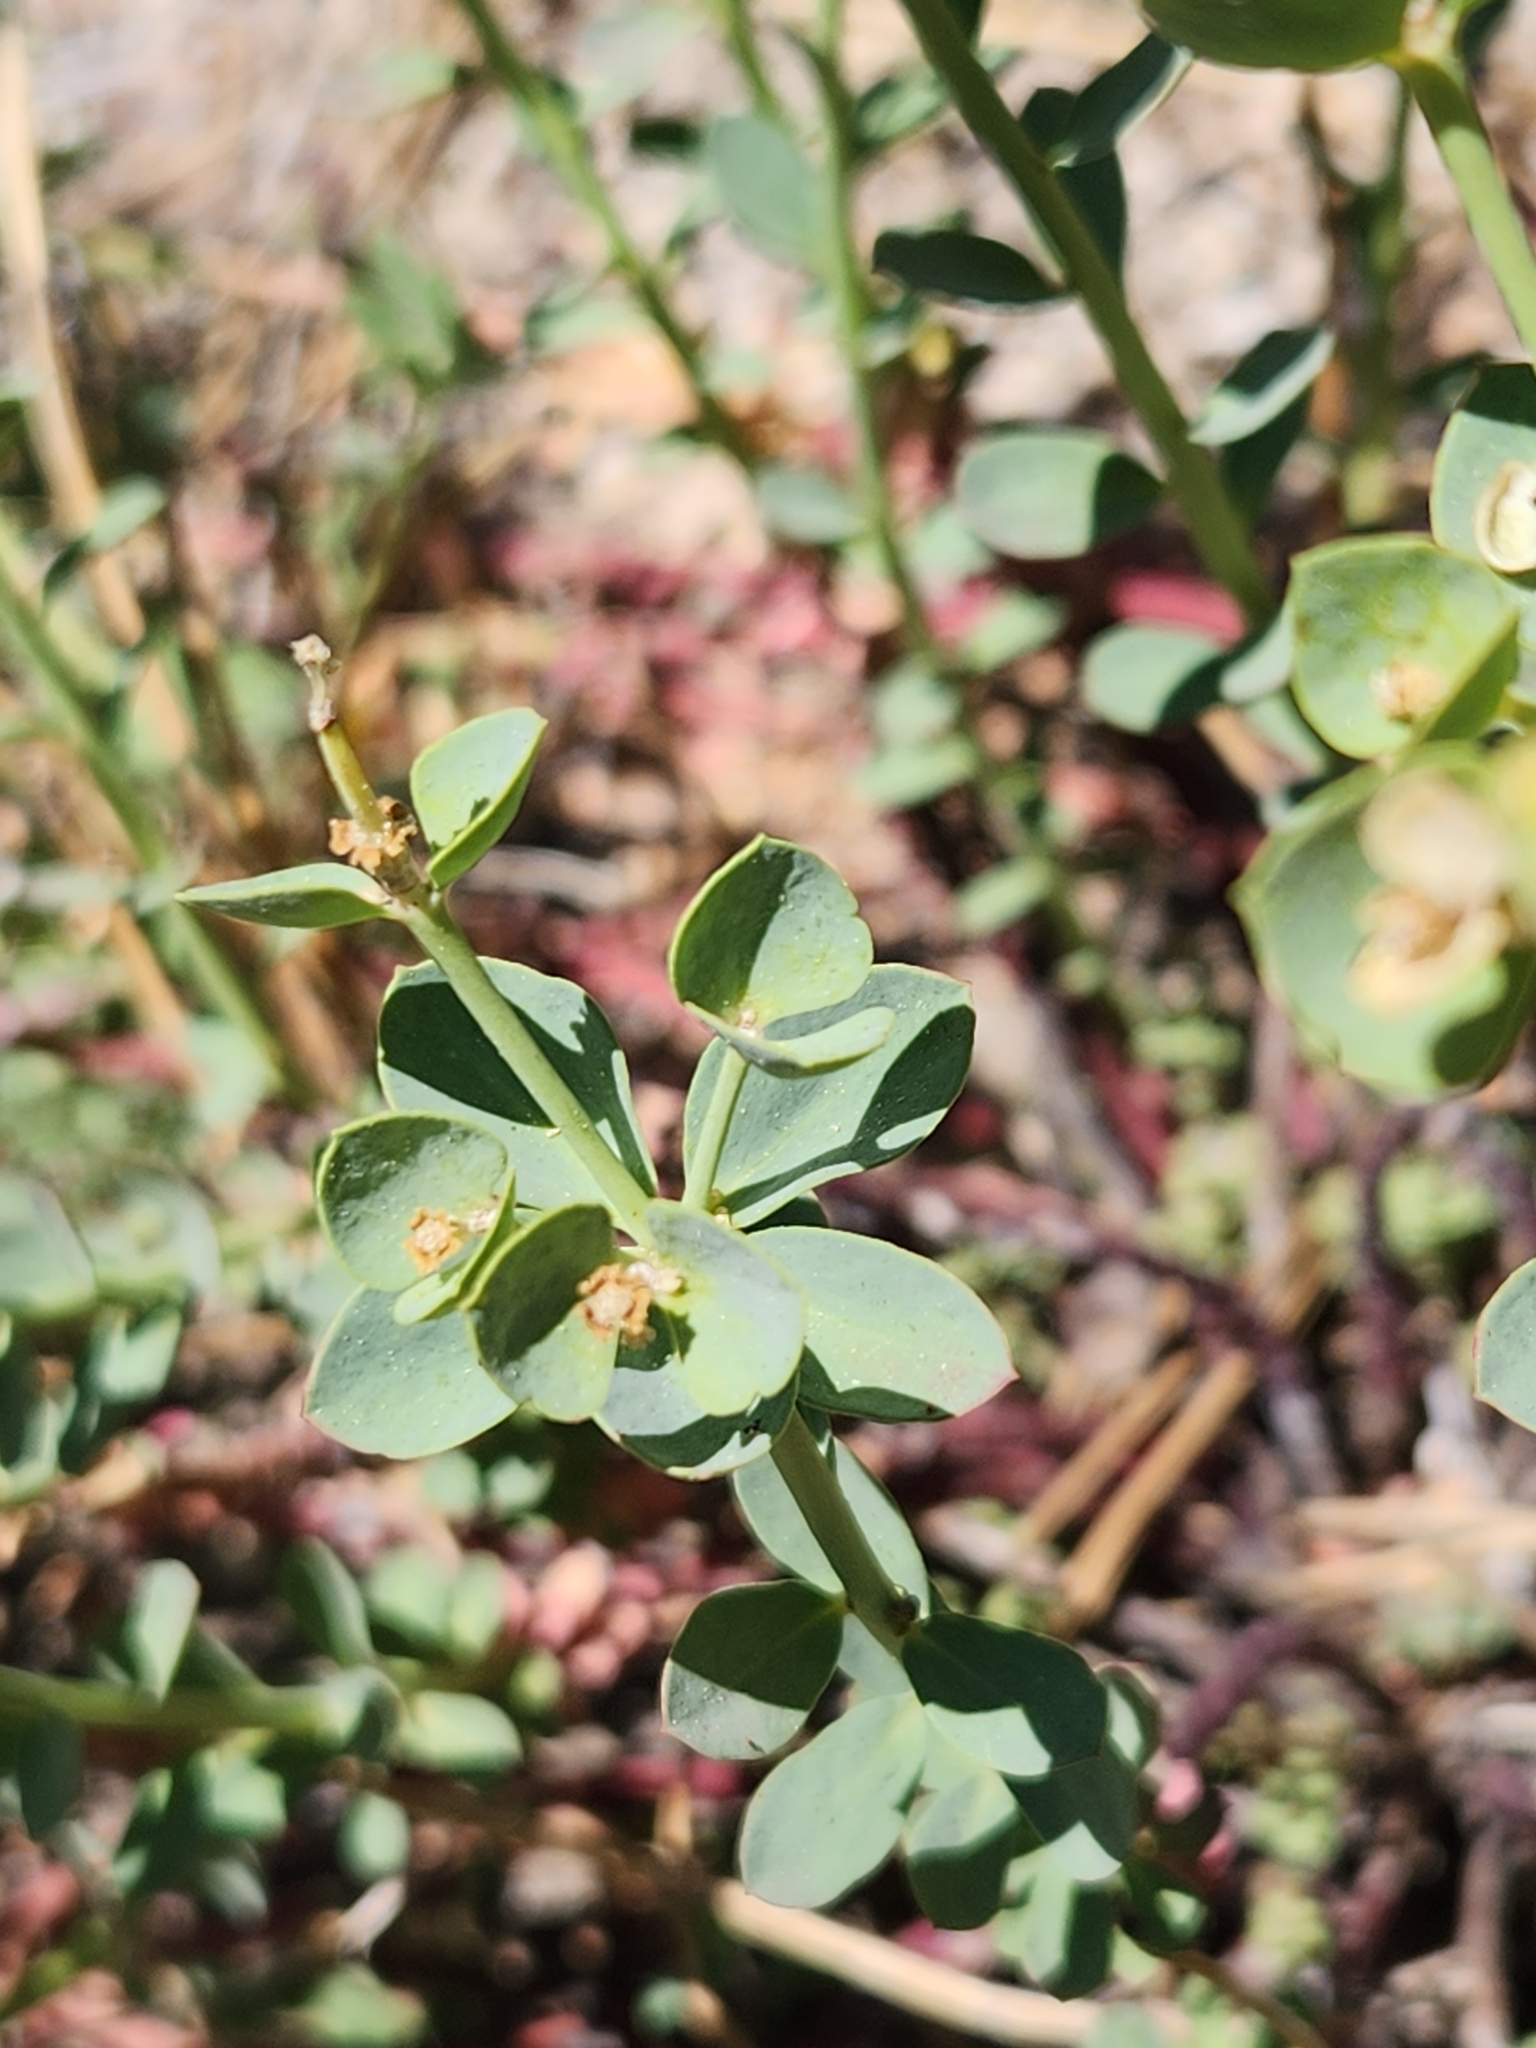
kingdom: Plantae
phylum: Tracheophyta
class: Magnoliopsida
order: Malpighiales
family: Euphorbiaceae
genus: Euphorbia
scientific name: Euphorbia lurida
